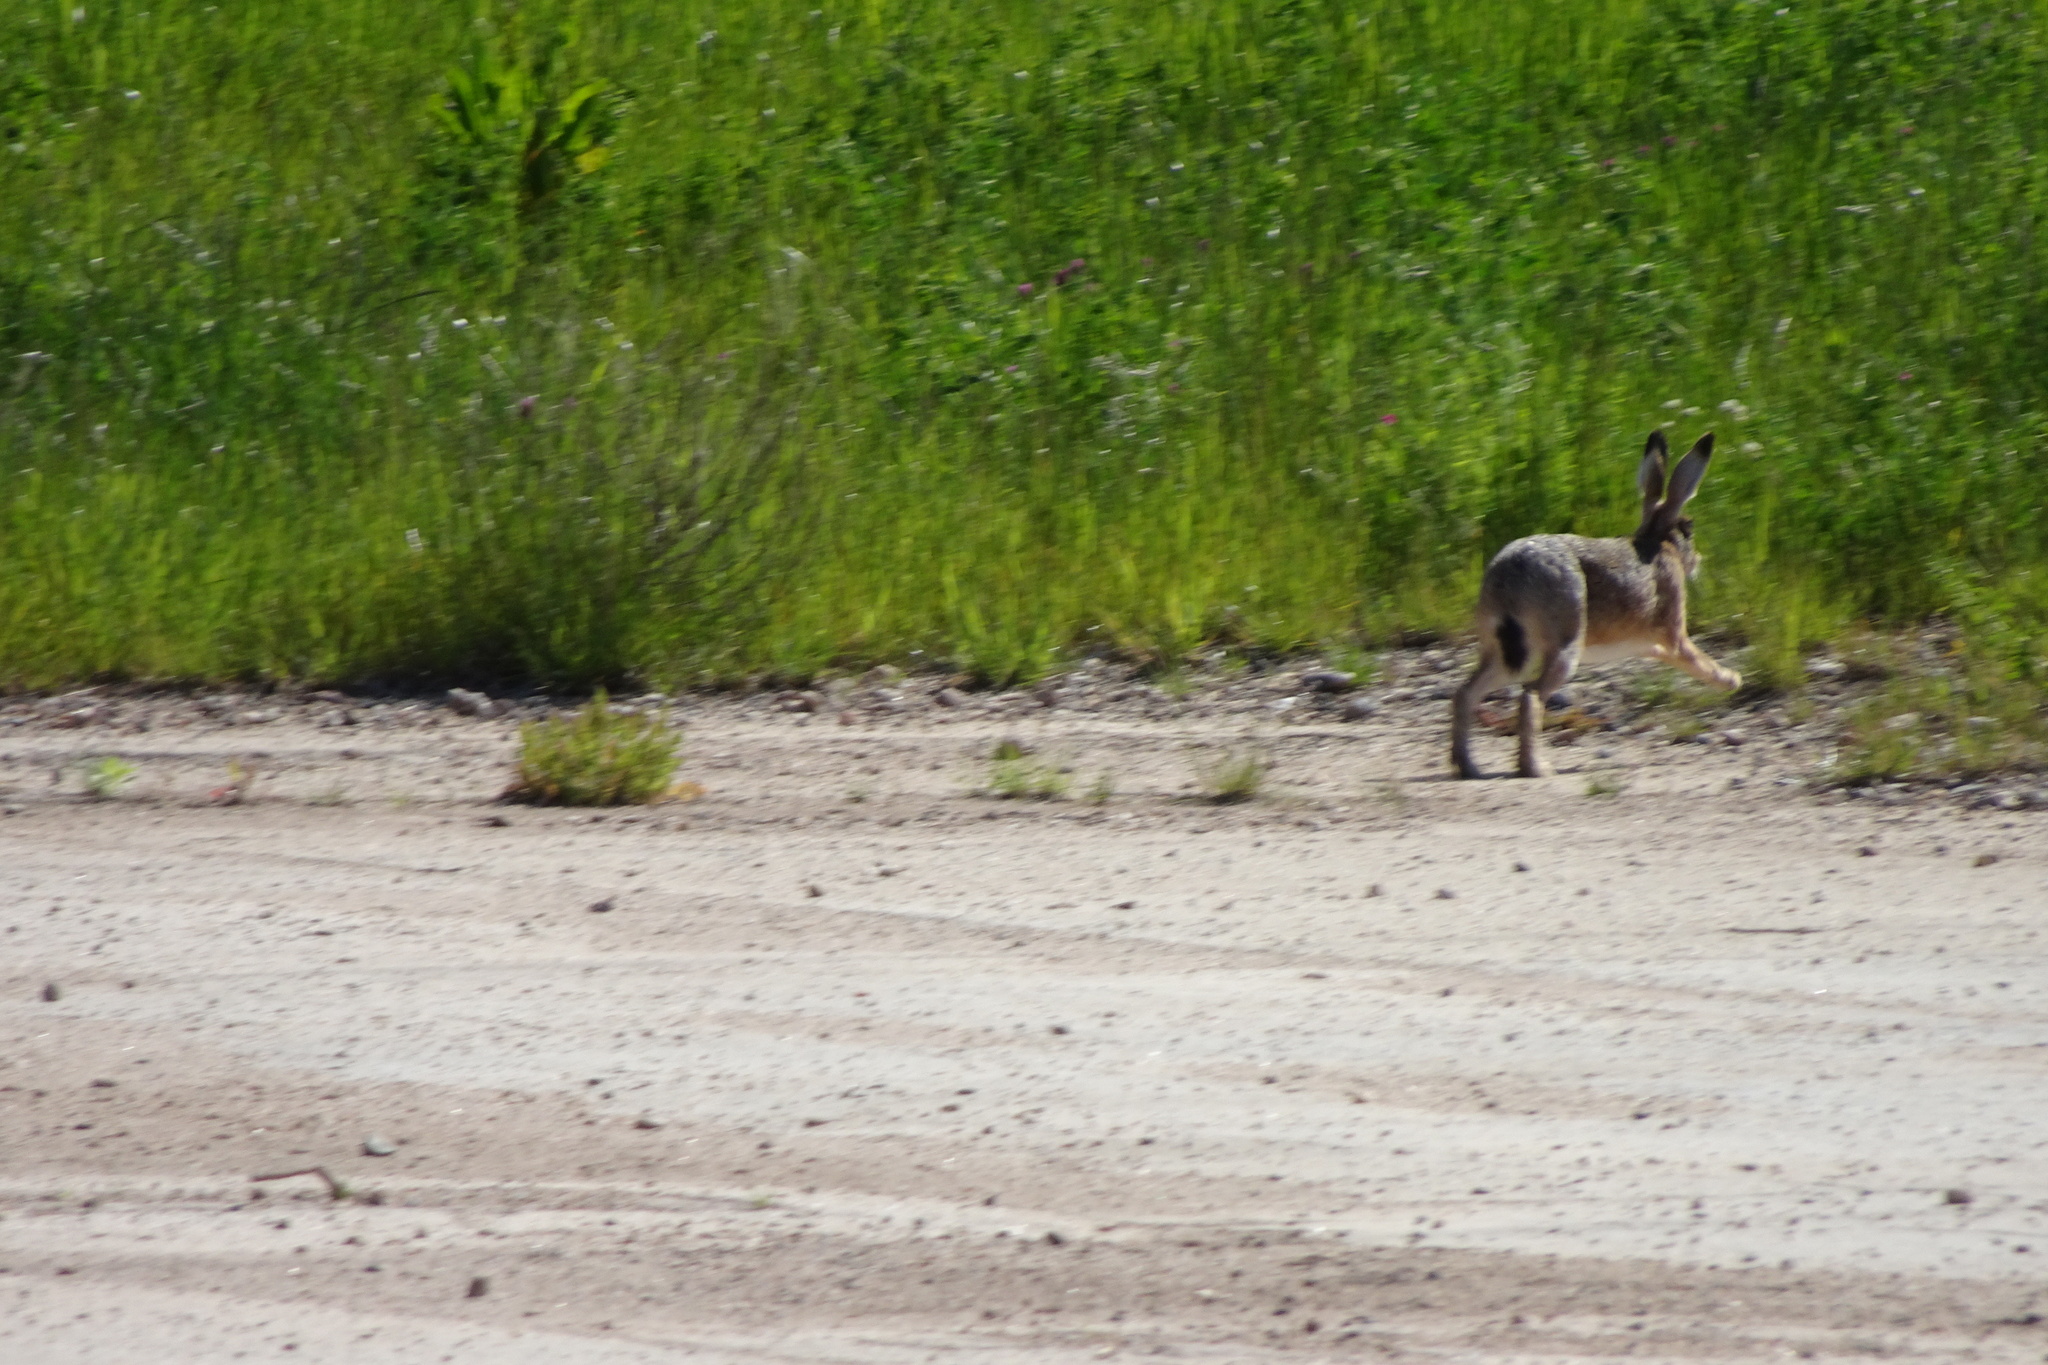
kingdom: Animalia
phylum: Chordata
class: Mammalia
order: Lagomorpha
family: Leporidae
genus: Lepus
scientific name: Lepus europaeus
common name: European hare
